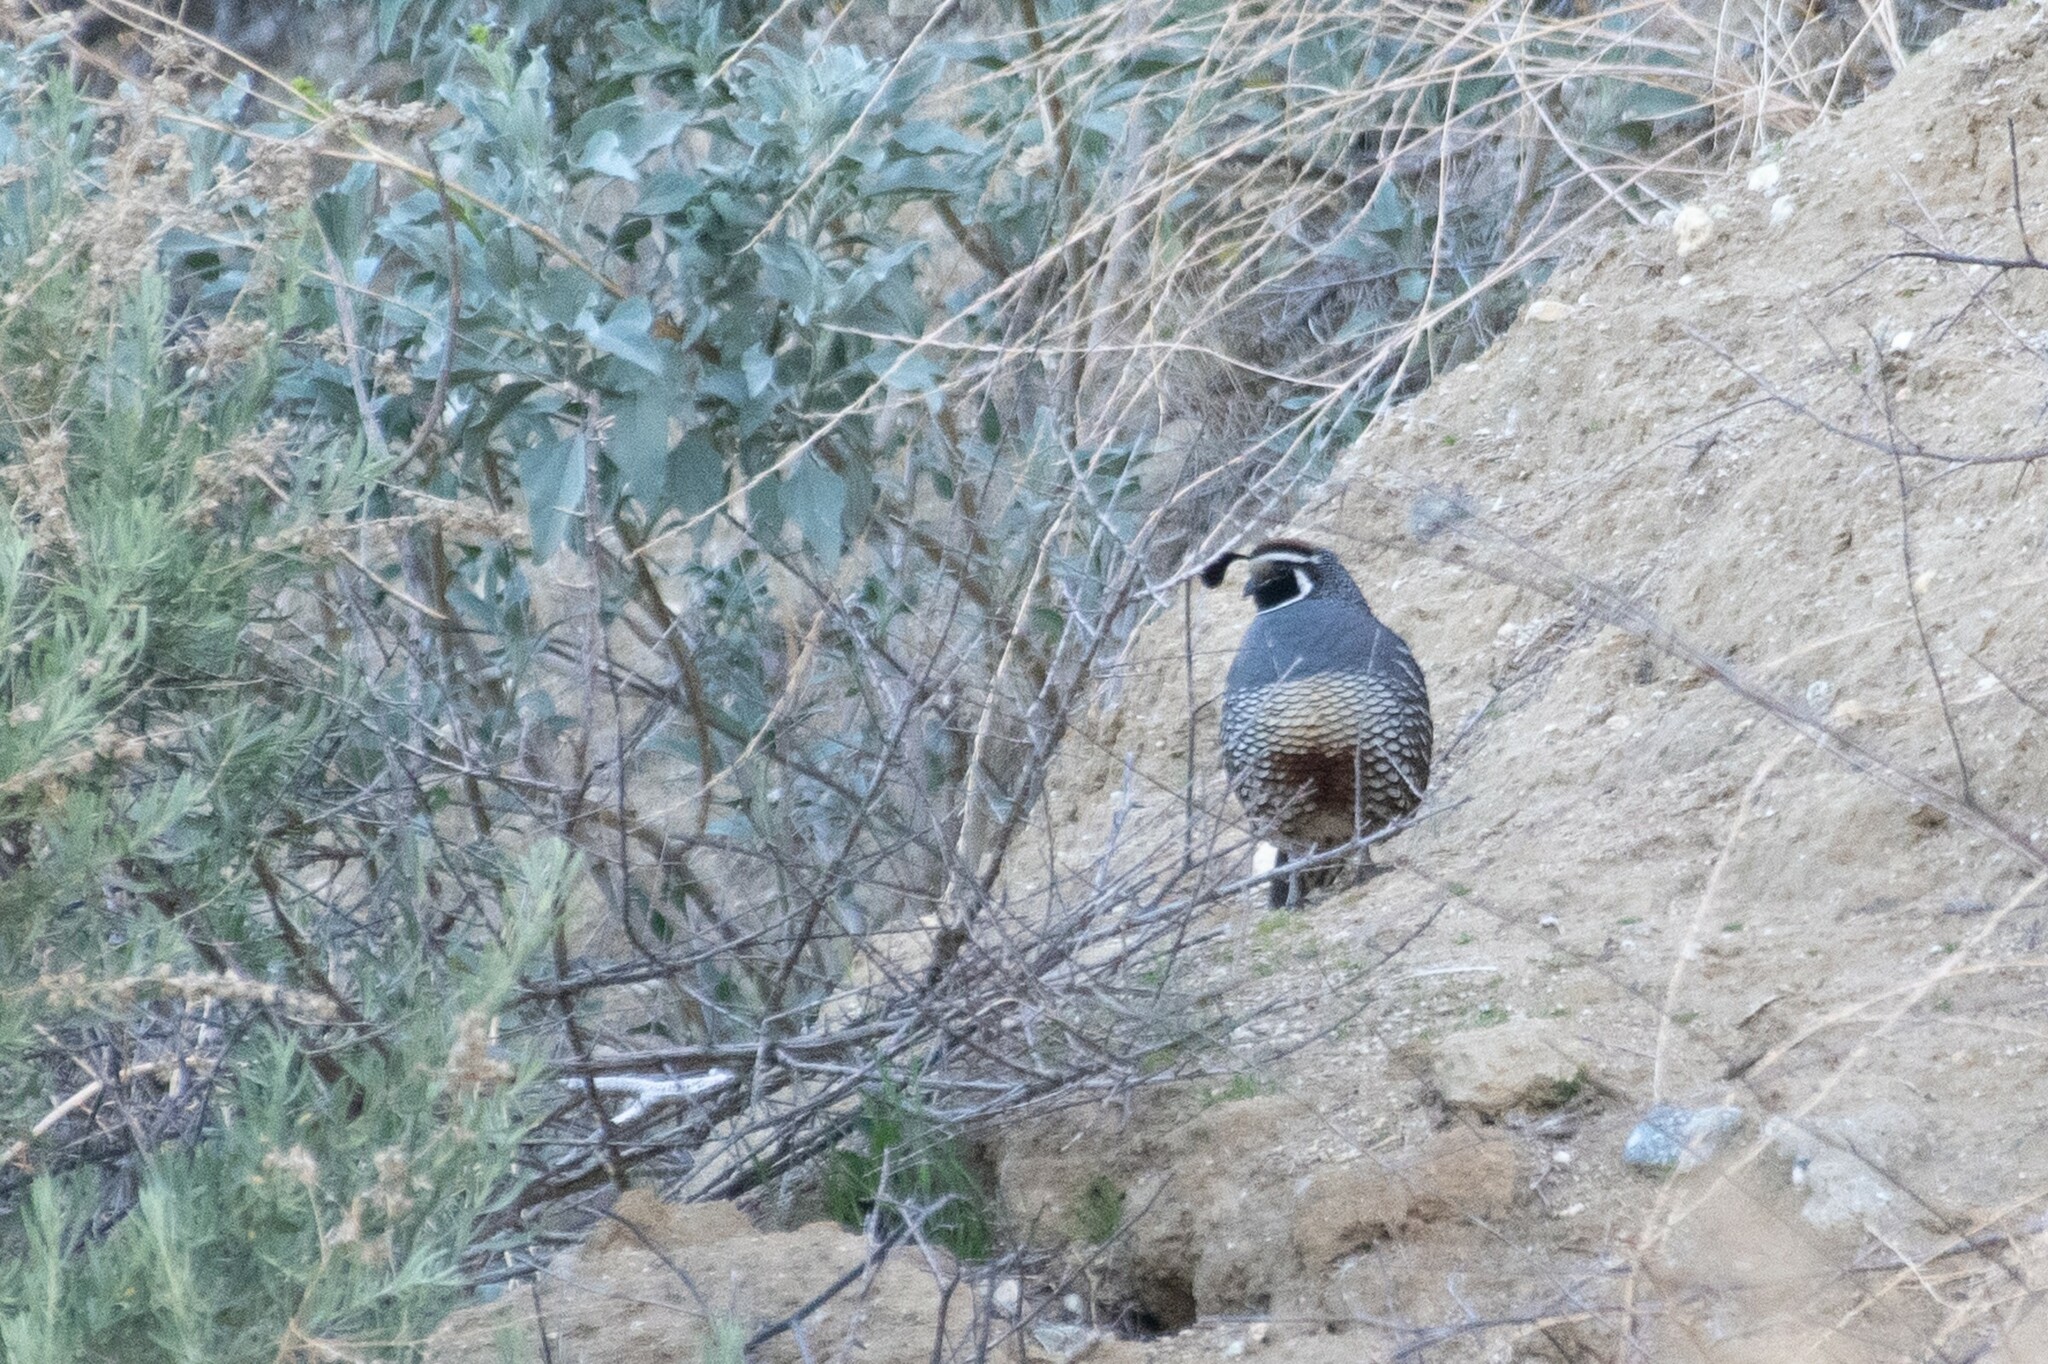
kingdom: Animalia
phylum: Chordata
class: Aves
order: Galliformes
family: Odontophoridae
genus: Callipepla
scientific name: Callipepla californica
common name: California quail
